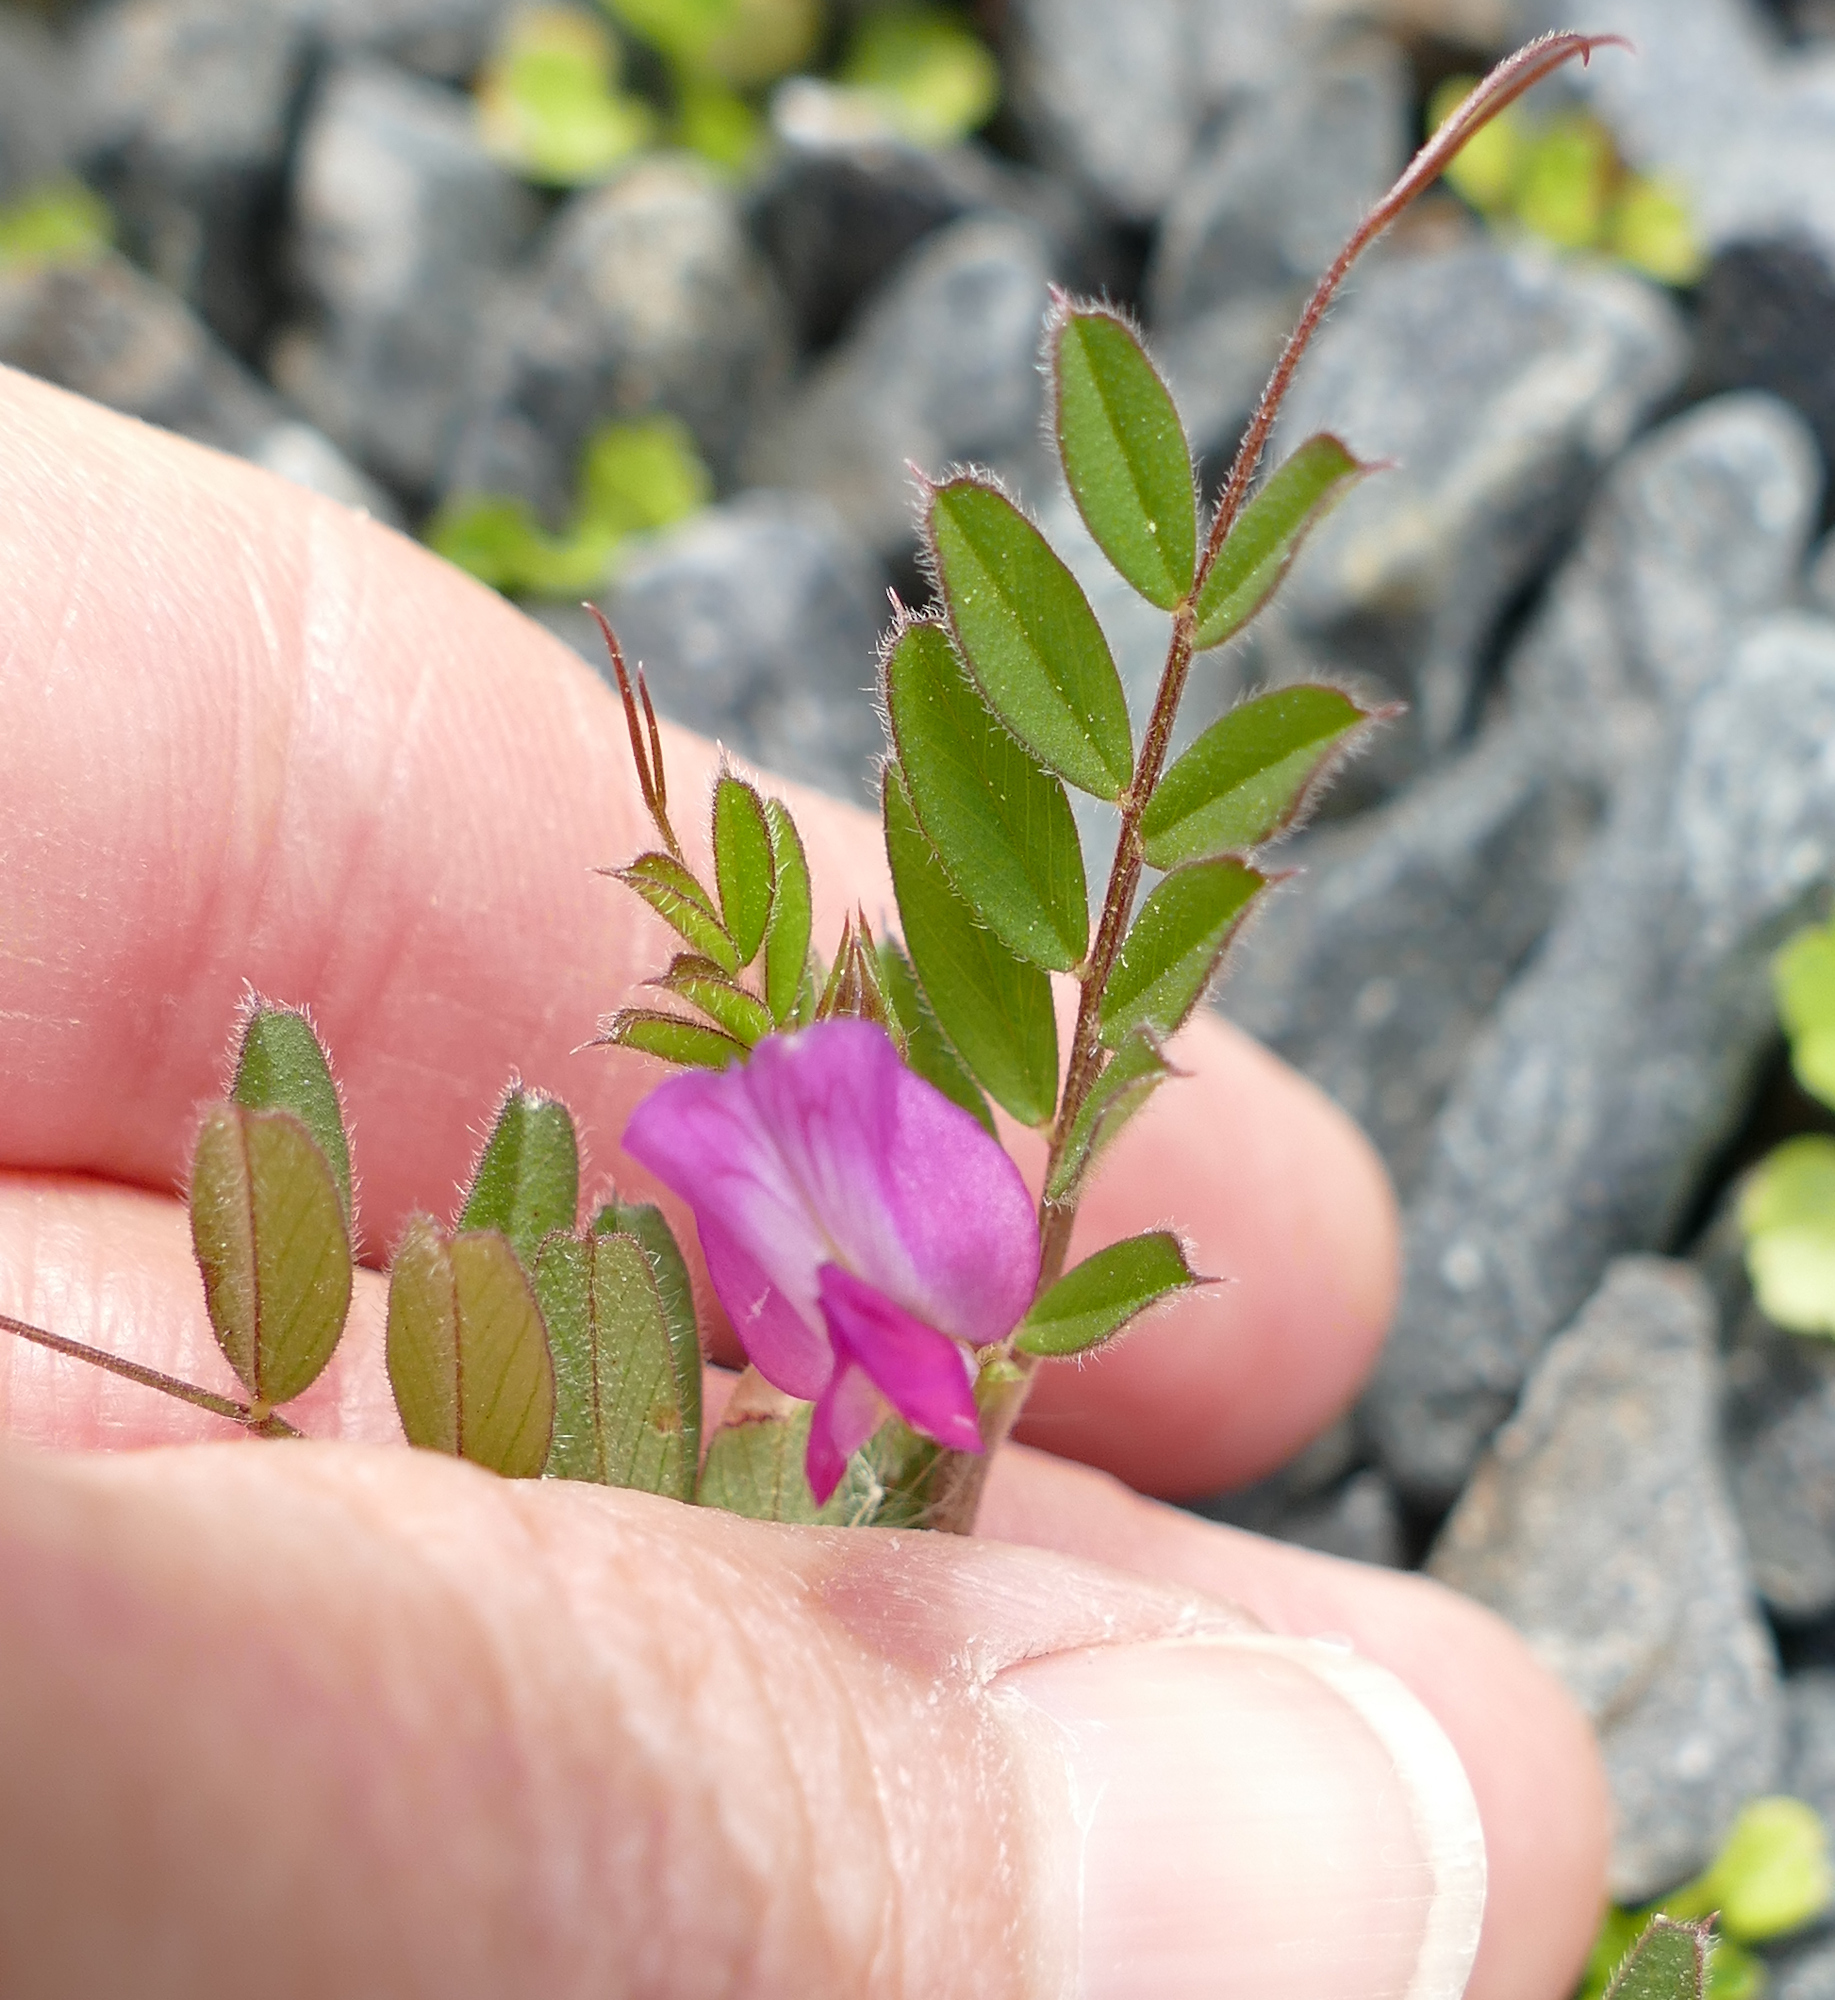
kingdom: Plantae
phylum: Tracheophyta
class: Magnoliopsida
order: Fabales
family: Fabaceae
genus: Vicia
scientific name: Vicia sativa
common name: Garden vetch
